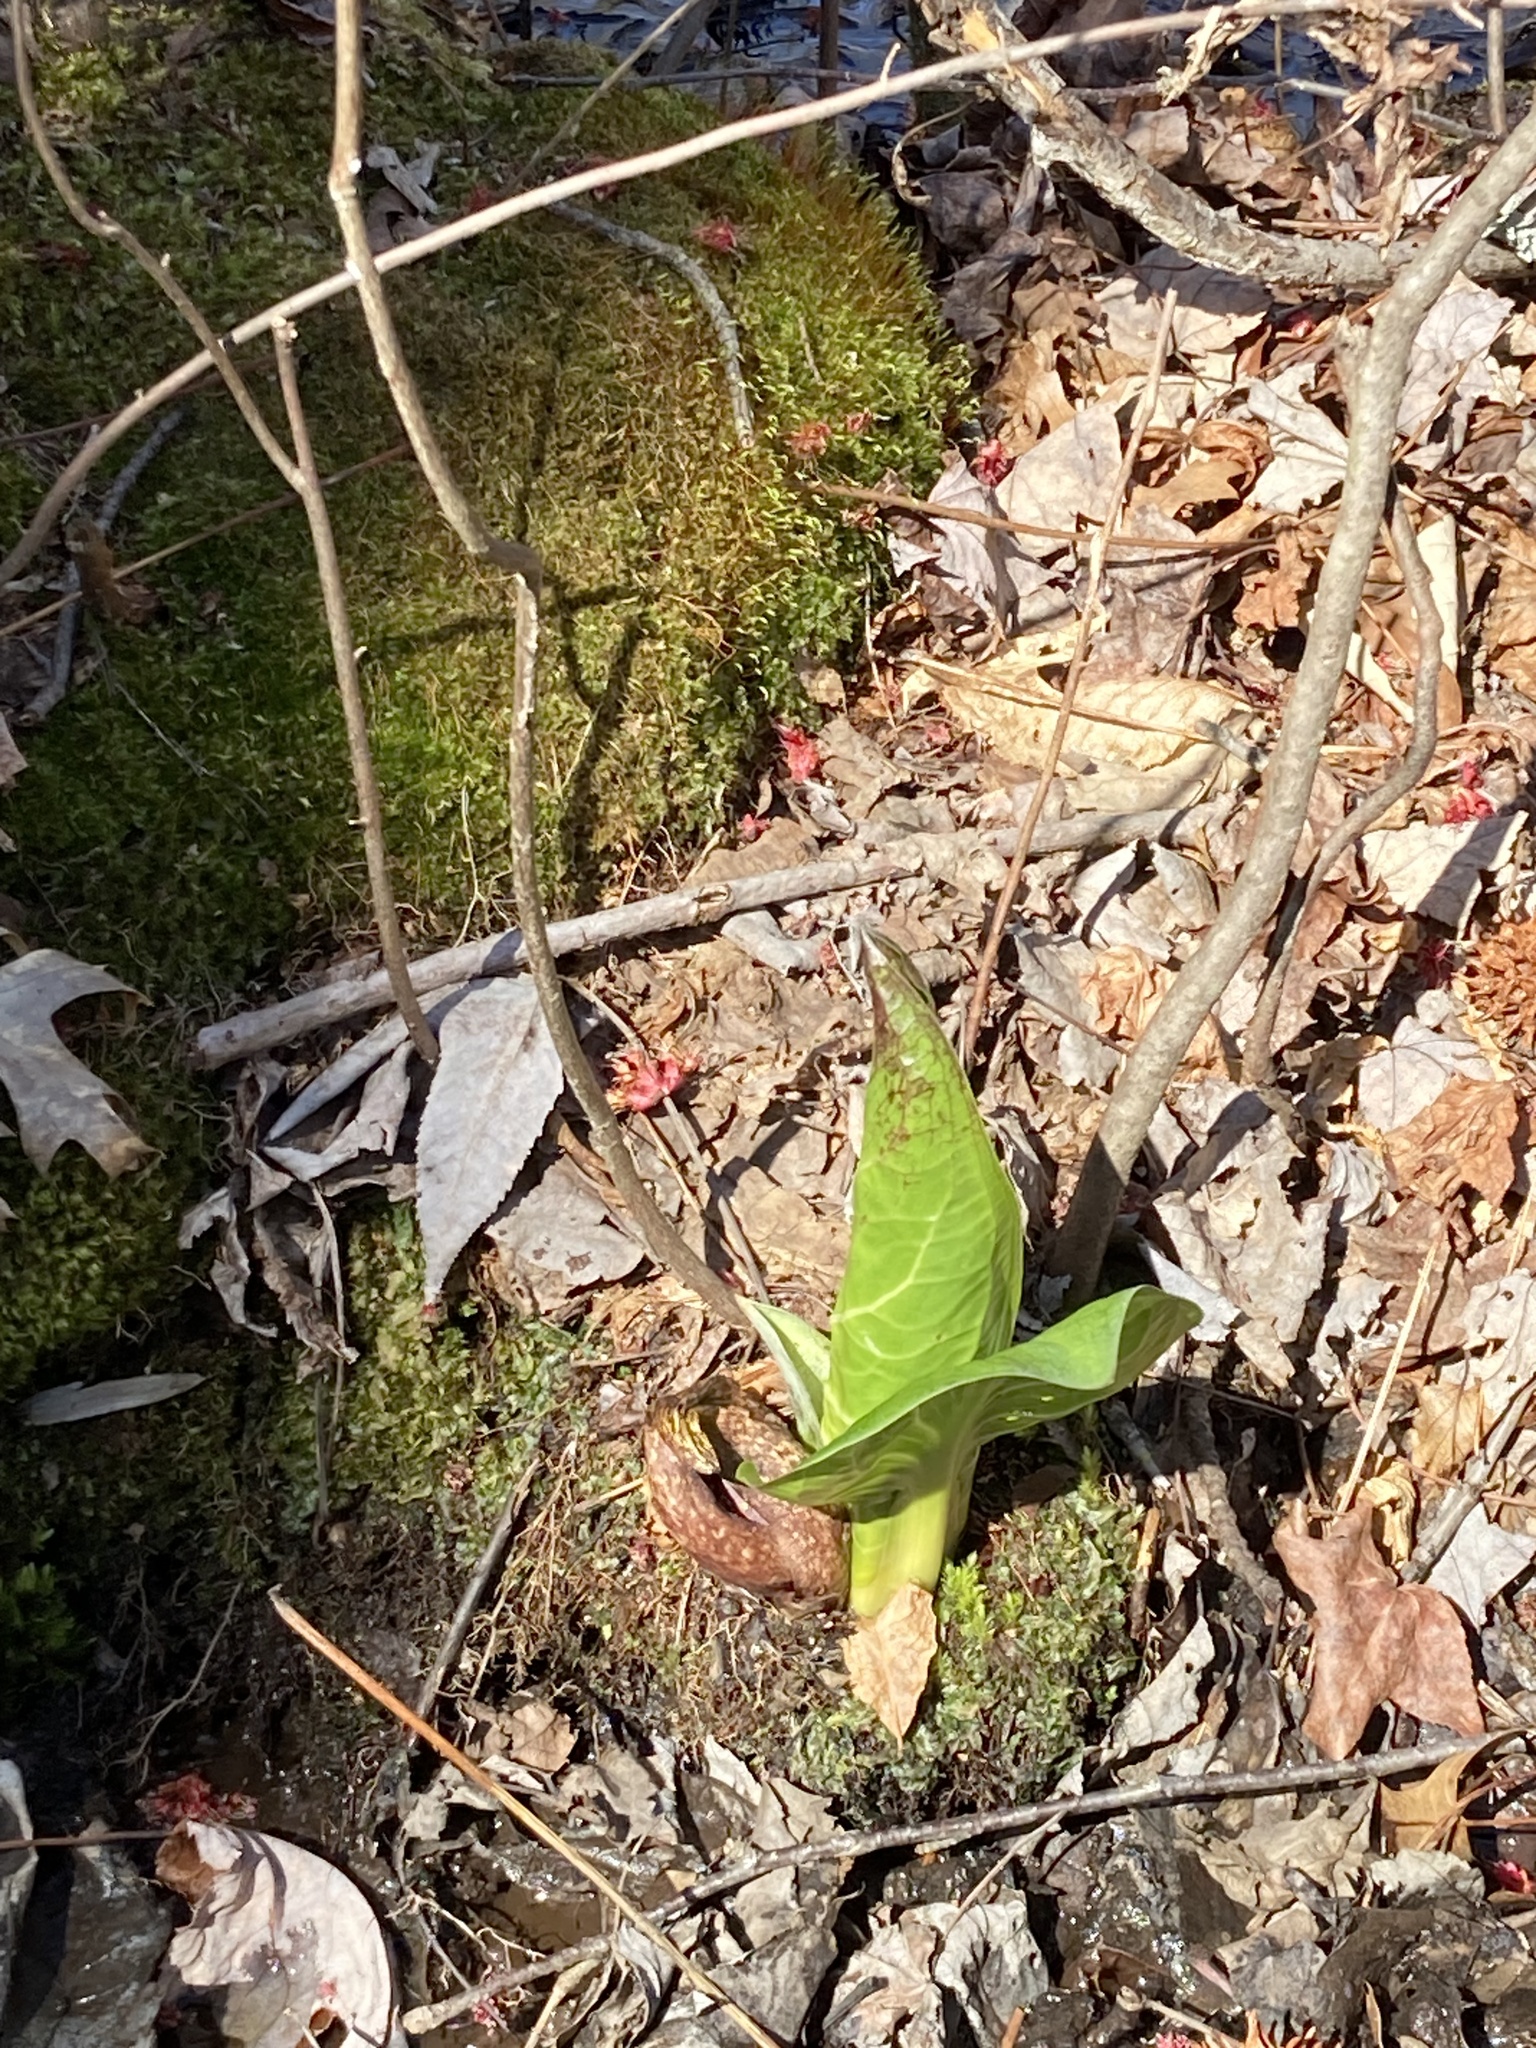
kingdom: Plantae
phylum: Tracheophyta
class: Liliopsida
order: Alismatales
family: Araceae
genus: Symplocarpus
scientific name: Symplocarpus foetidus
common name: Eastern skunk cabbage
